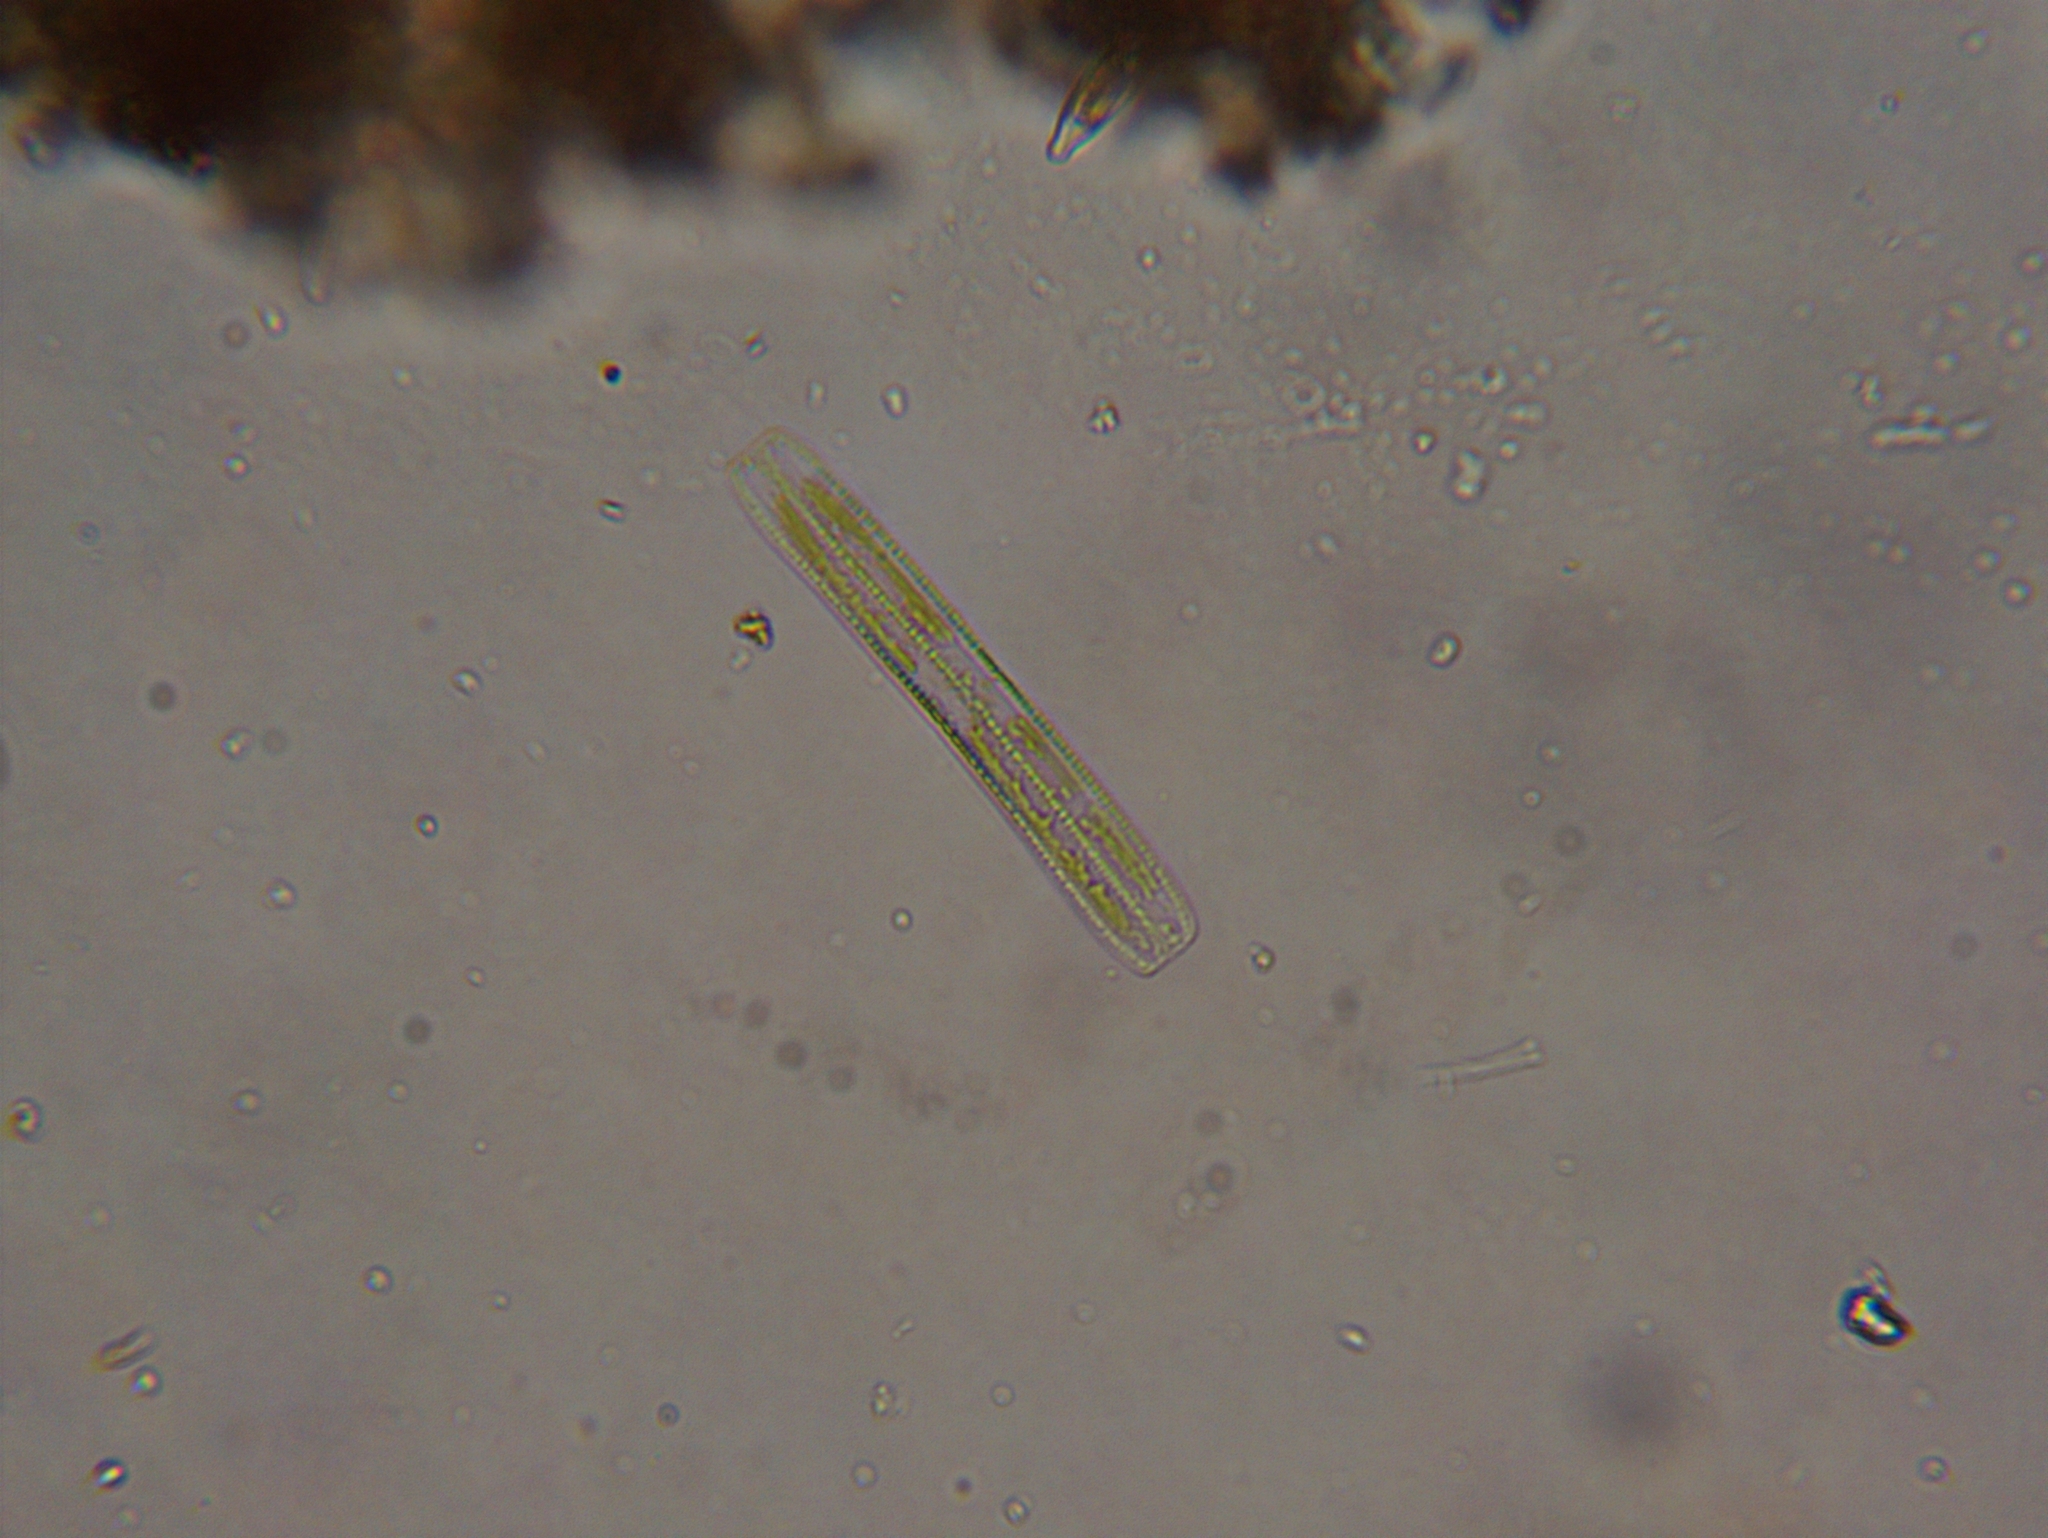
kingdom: Chromista
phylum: Ochrophyta
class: Bacillariophyceae
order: Bacillariales
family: Bacillariaceae
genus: Nitzschia
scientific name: Nitzschia
